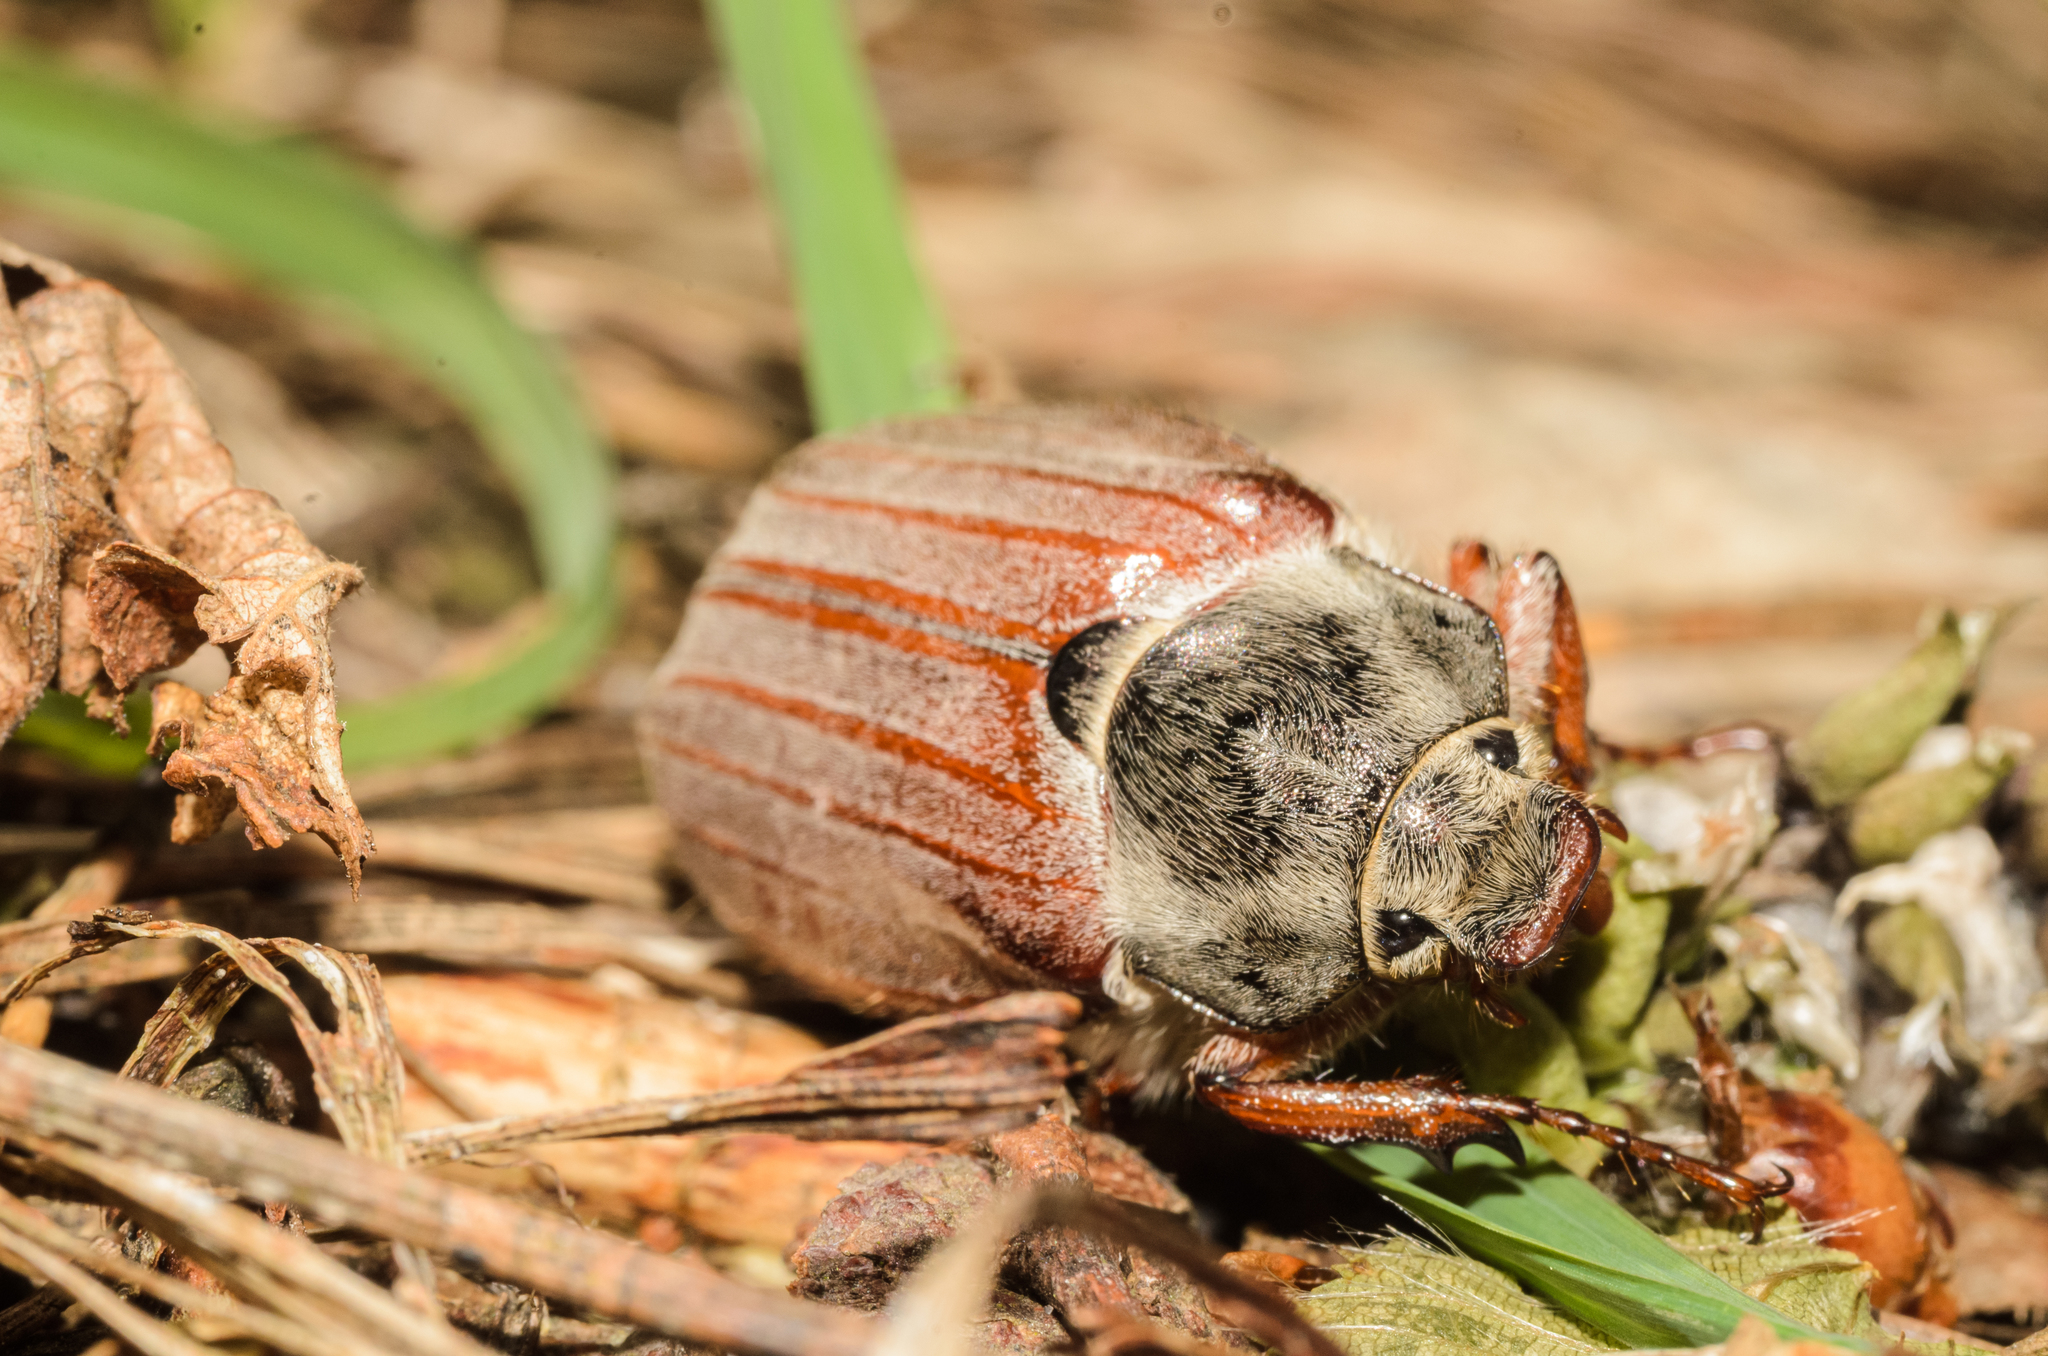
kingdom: Animalia
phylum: Arthropoda
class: Insecta
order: Coleoptera
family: Scarabaeidae
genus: Melolontha
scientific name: Melolontha melolontha
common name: Cockchafer maybeetle
